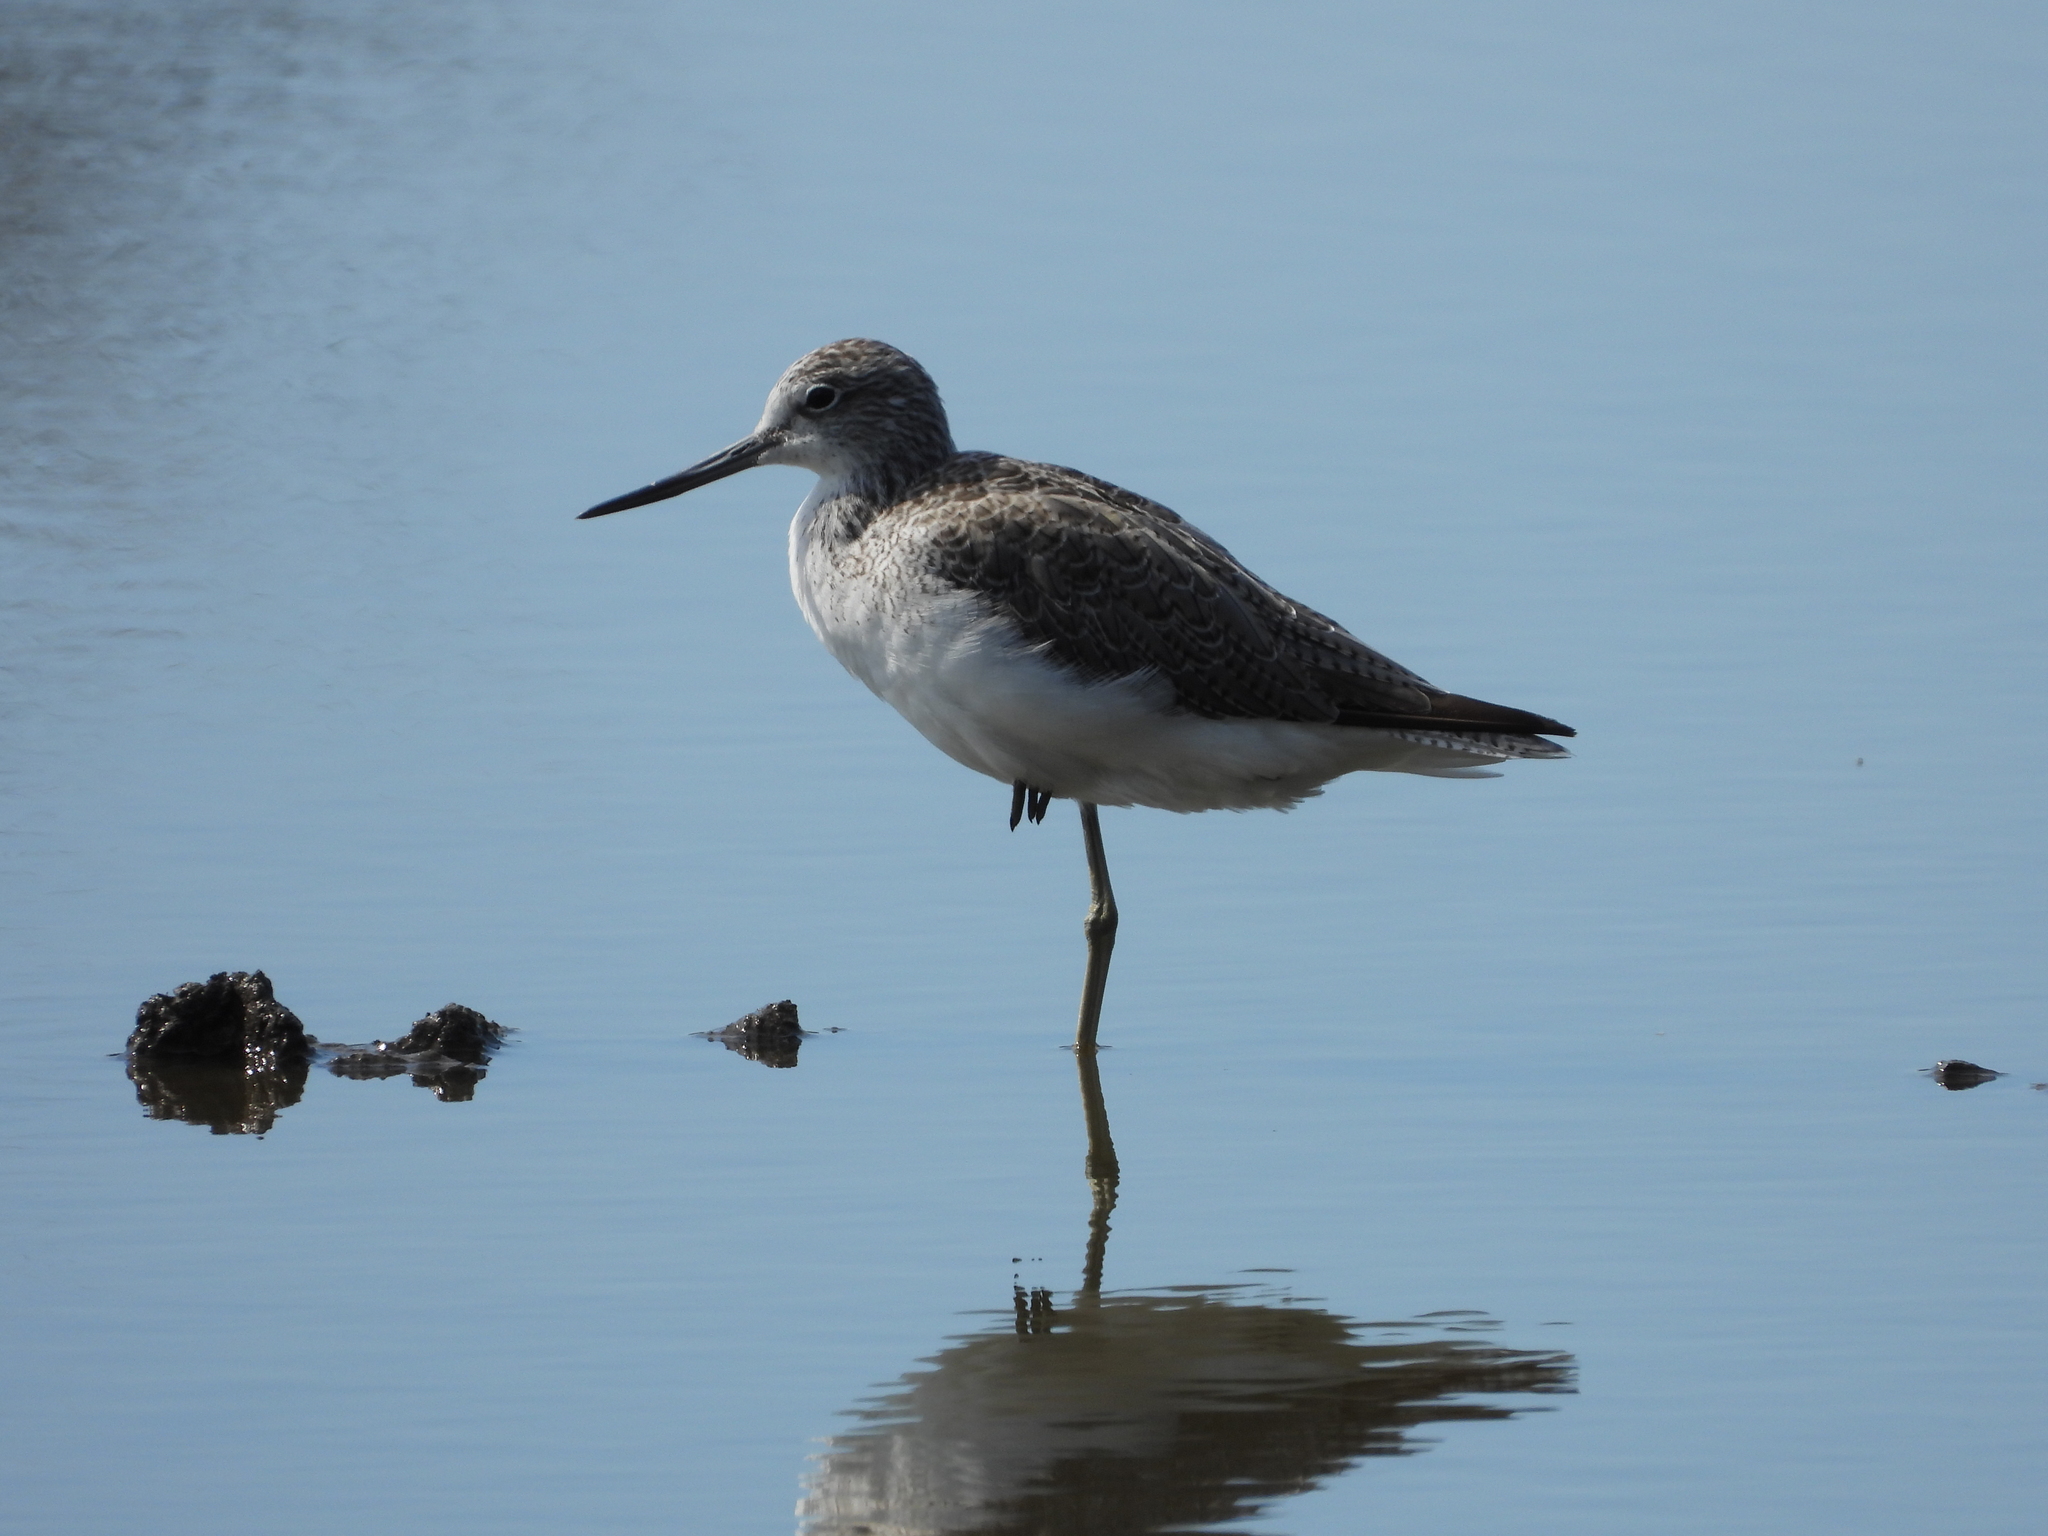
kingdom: Animalia
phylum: Chordata
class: Aves
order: Charadriiformes
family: Scolopacidae
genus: Tringa
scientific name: Tringa nebularia
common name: Common greenshank
